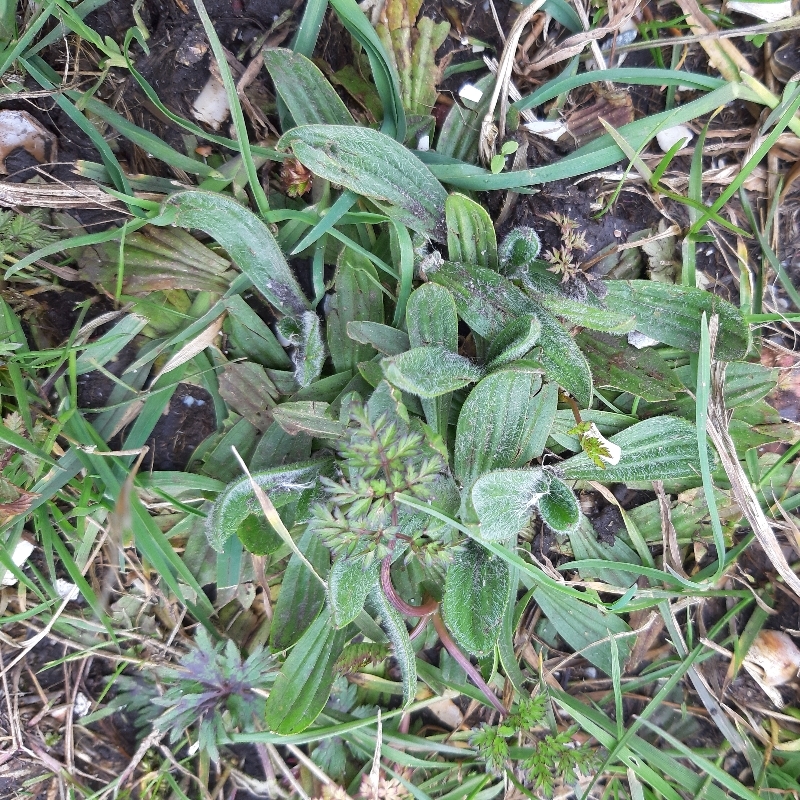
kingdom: Plantae
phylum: Tracheophyta
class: Magnoliopsida
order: Lamiales
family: Plantaginaceae
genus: Plantago
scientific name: Plantago lanceolata
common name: Ribwort plantain
